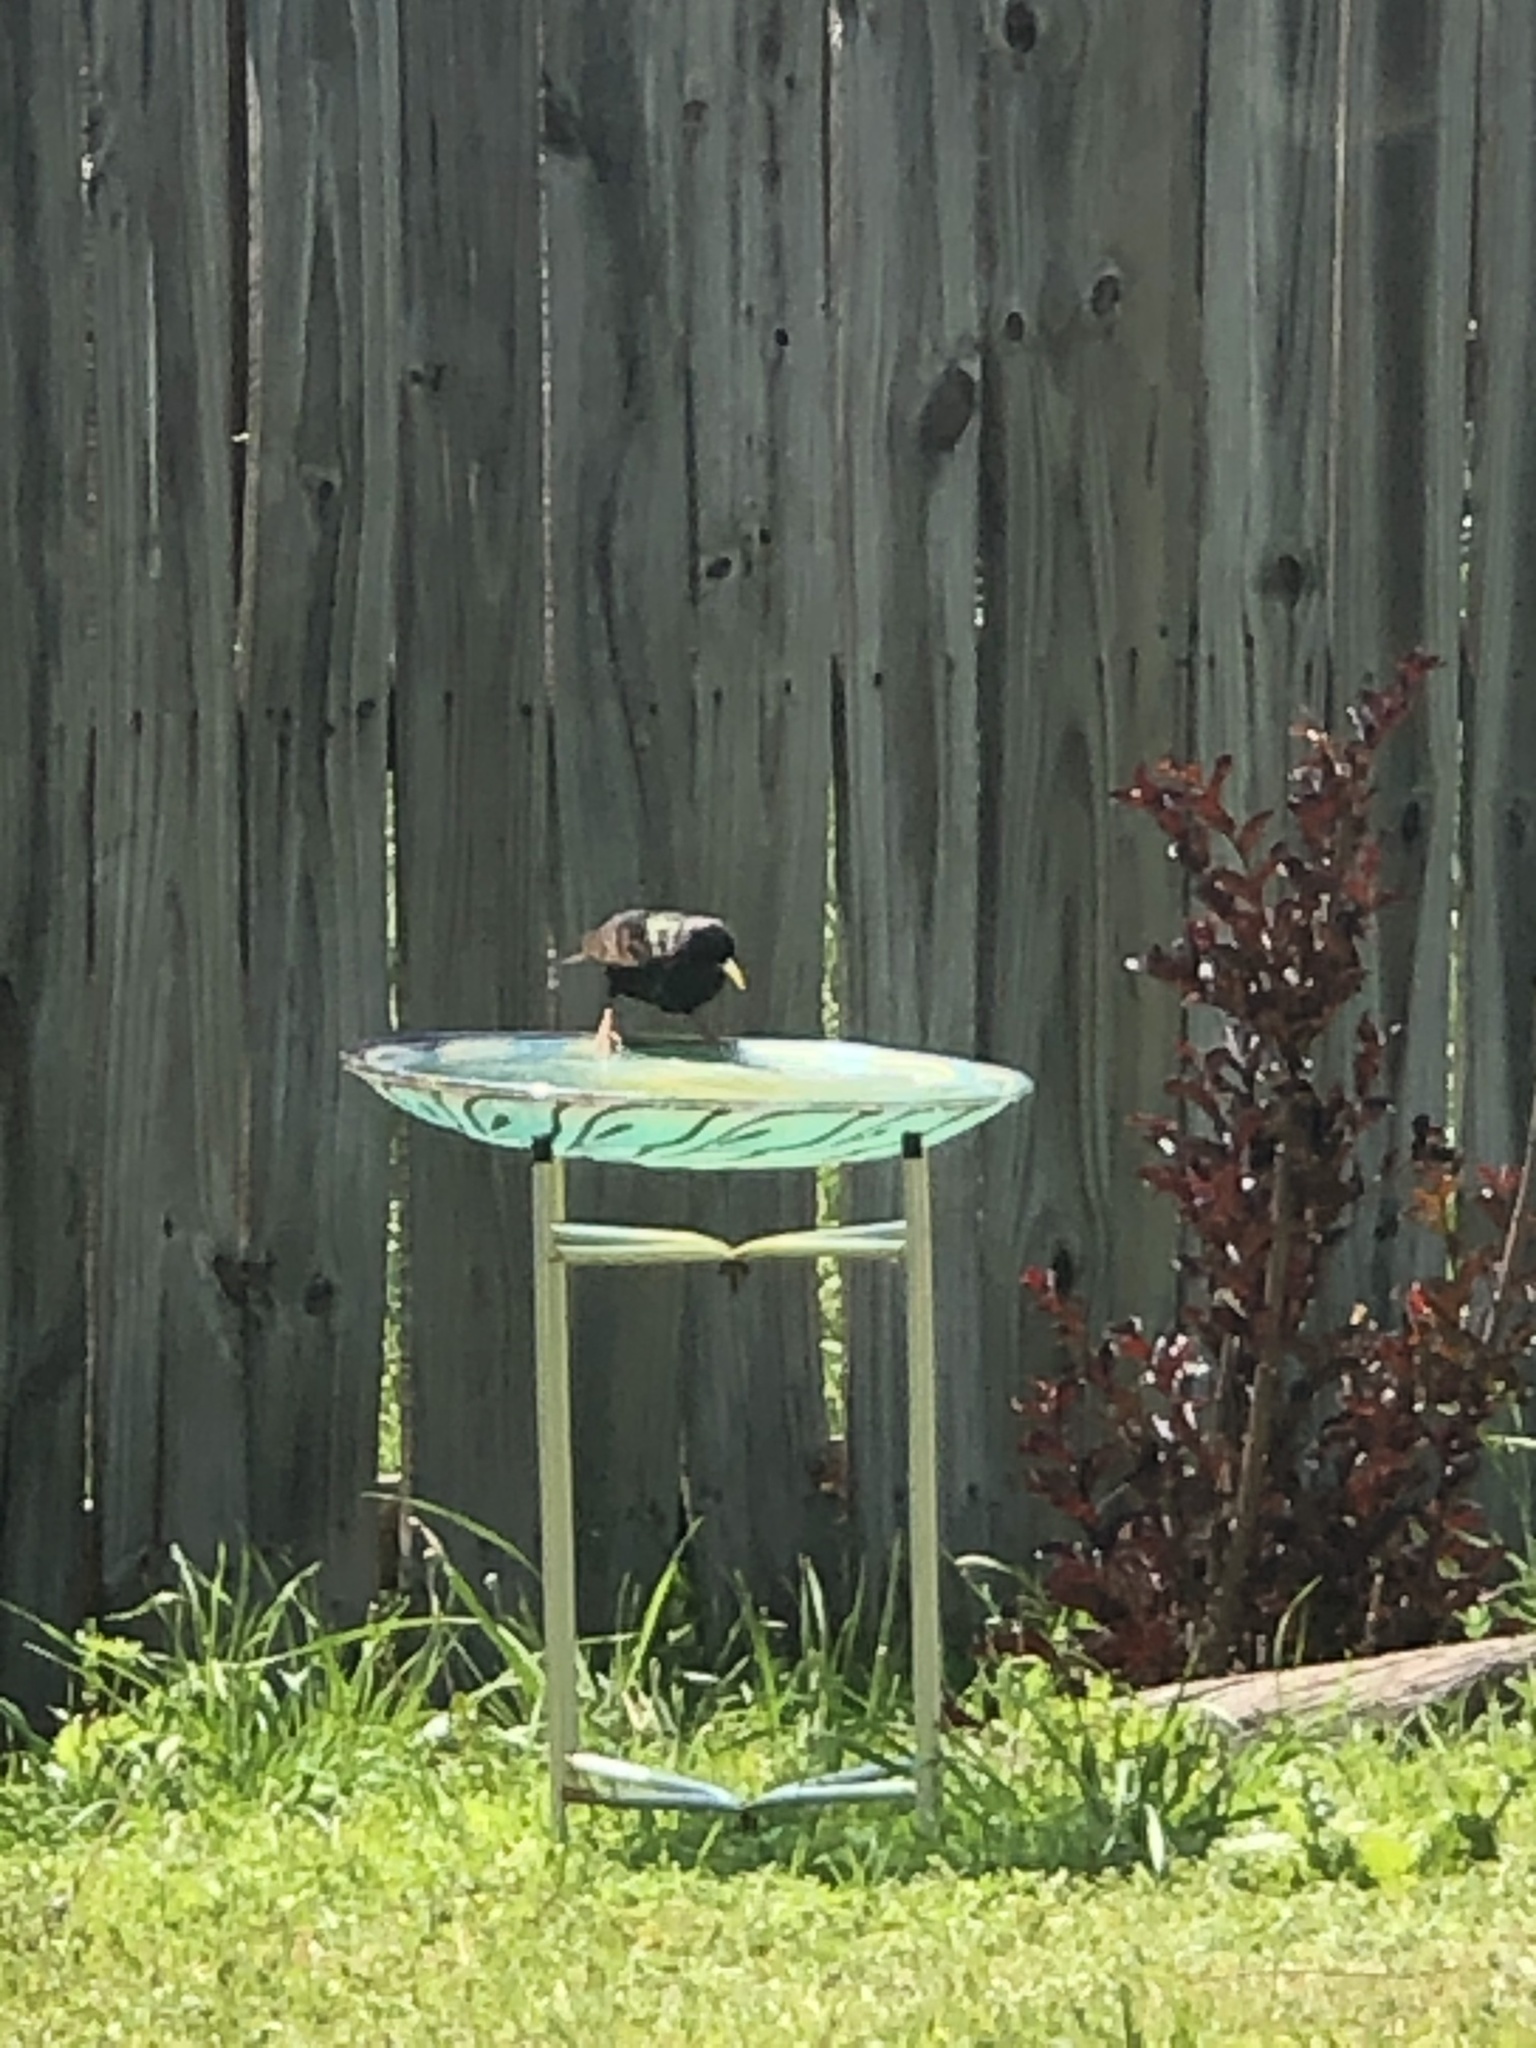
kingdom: Animalia
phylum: Chordata
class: Aves
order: Passeriformes
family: Sturnidae
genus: Sturnus
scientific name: Sturnus vulgaris
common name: Common starling
